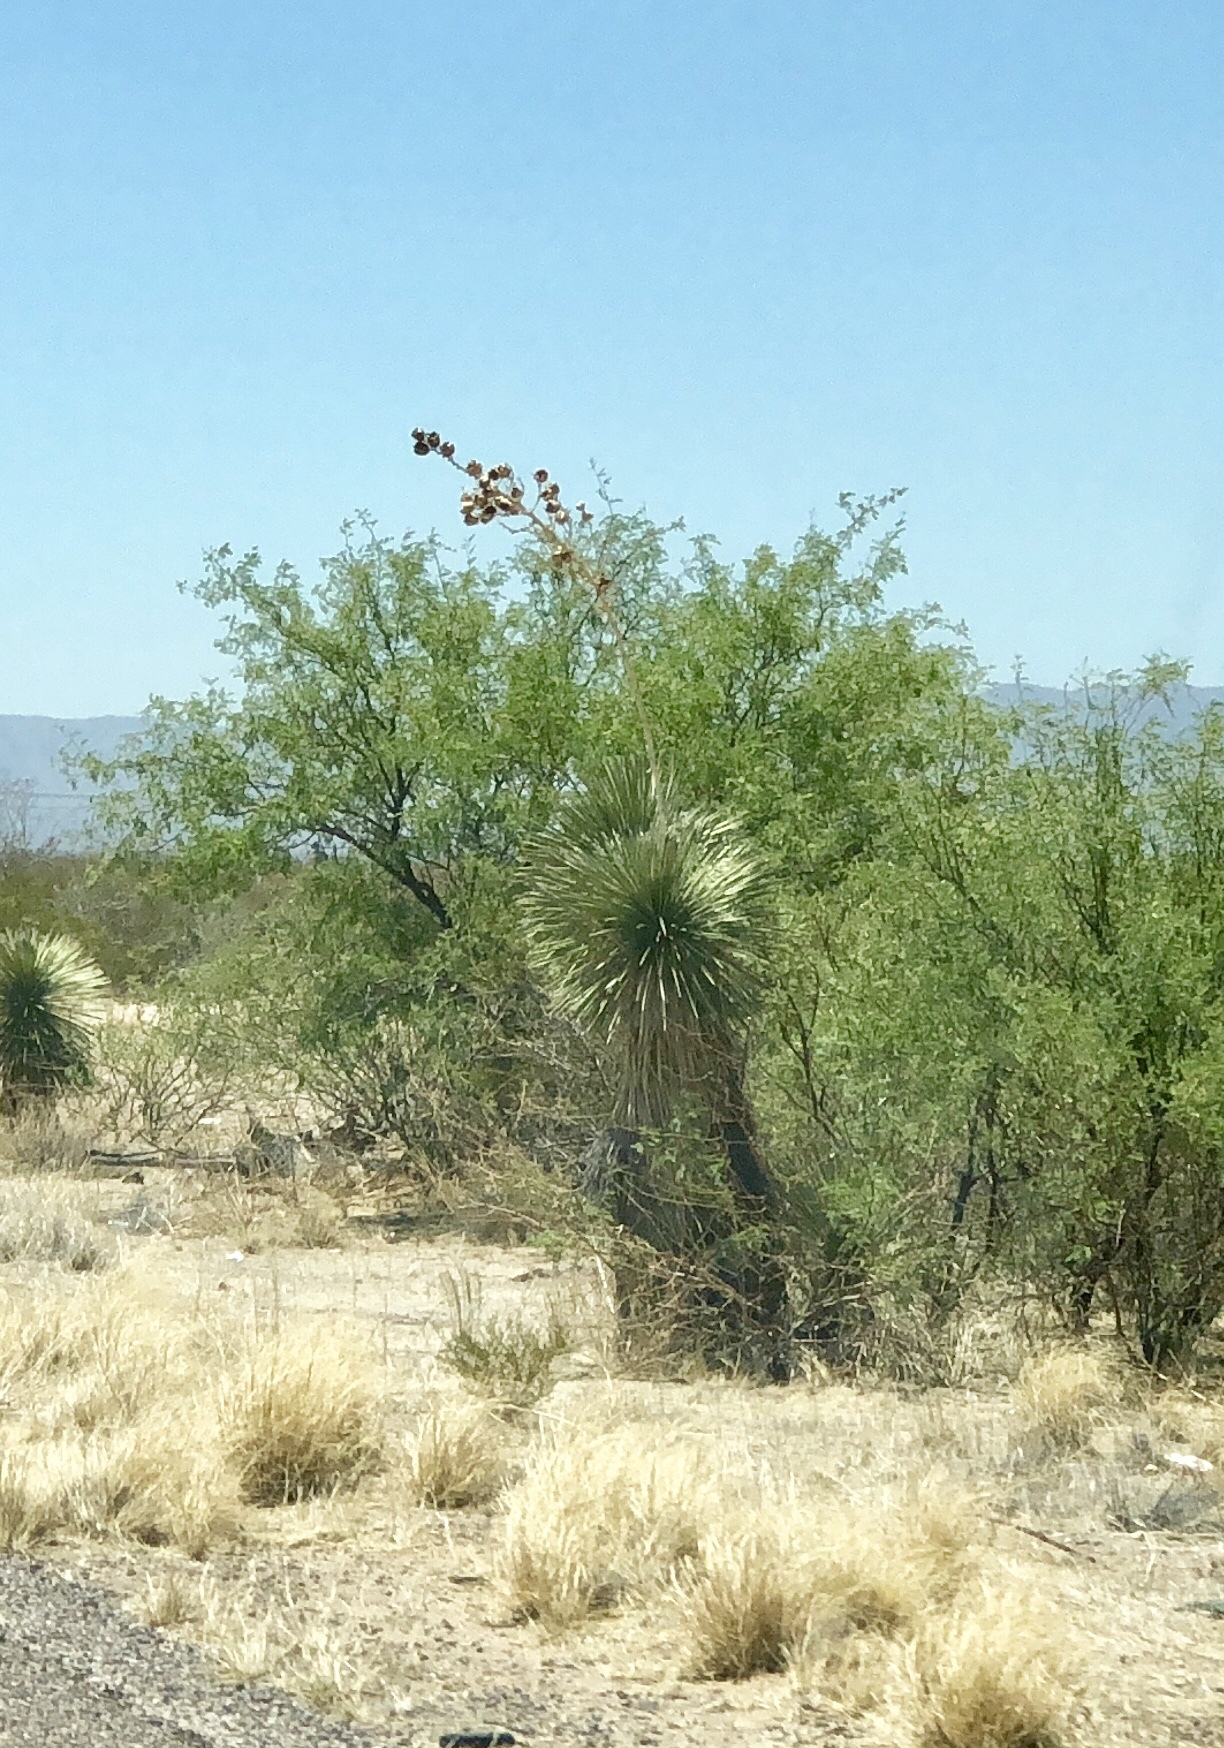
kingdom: Plantae
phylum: Tracheophyta
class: Liliopsida
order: Asparagales
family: Asparagaceae
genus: Yucca
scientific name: Yucca elata
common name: Palmella
